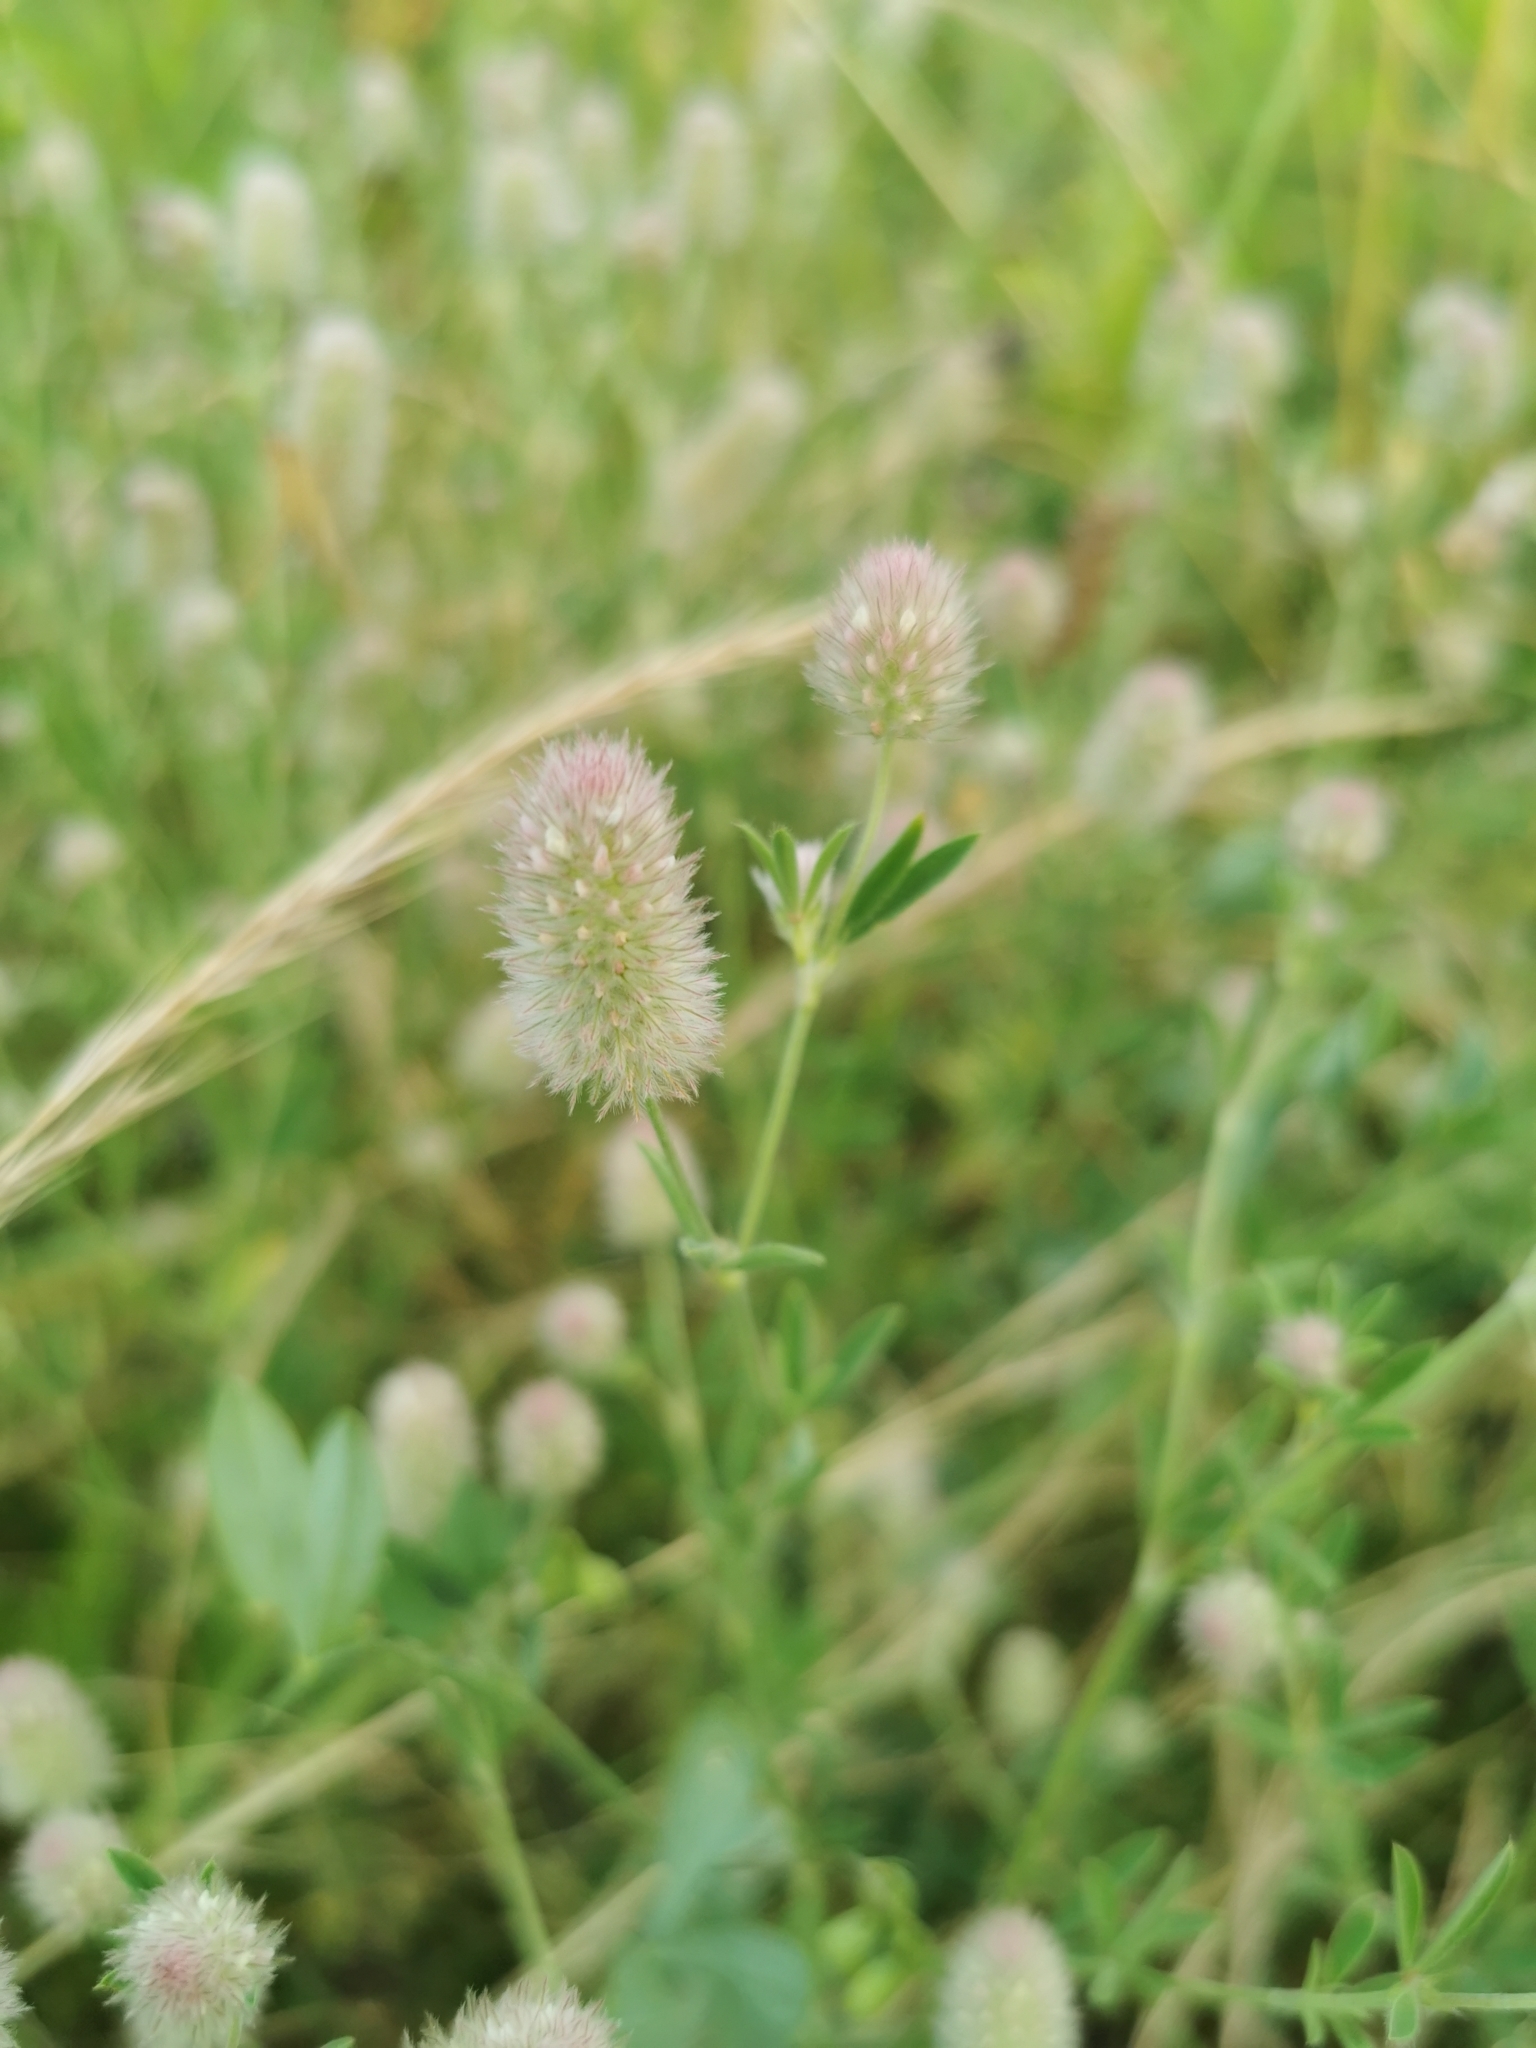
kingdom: Plantae
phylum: Tracheophyta
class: Magnoliopsida
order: Fabales
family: Fabaceae
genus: Trifolium
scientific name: Trifolium arvense
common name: Hare's-foot clover
